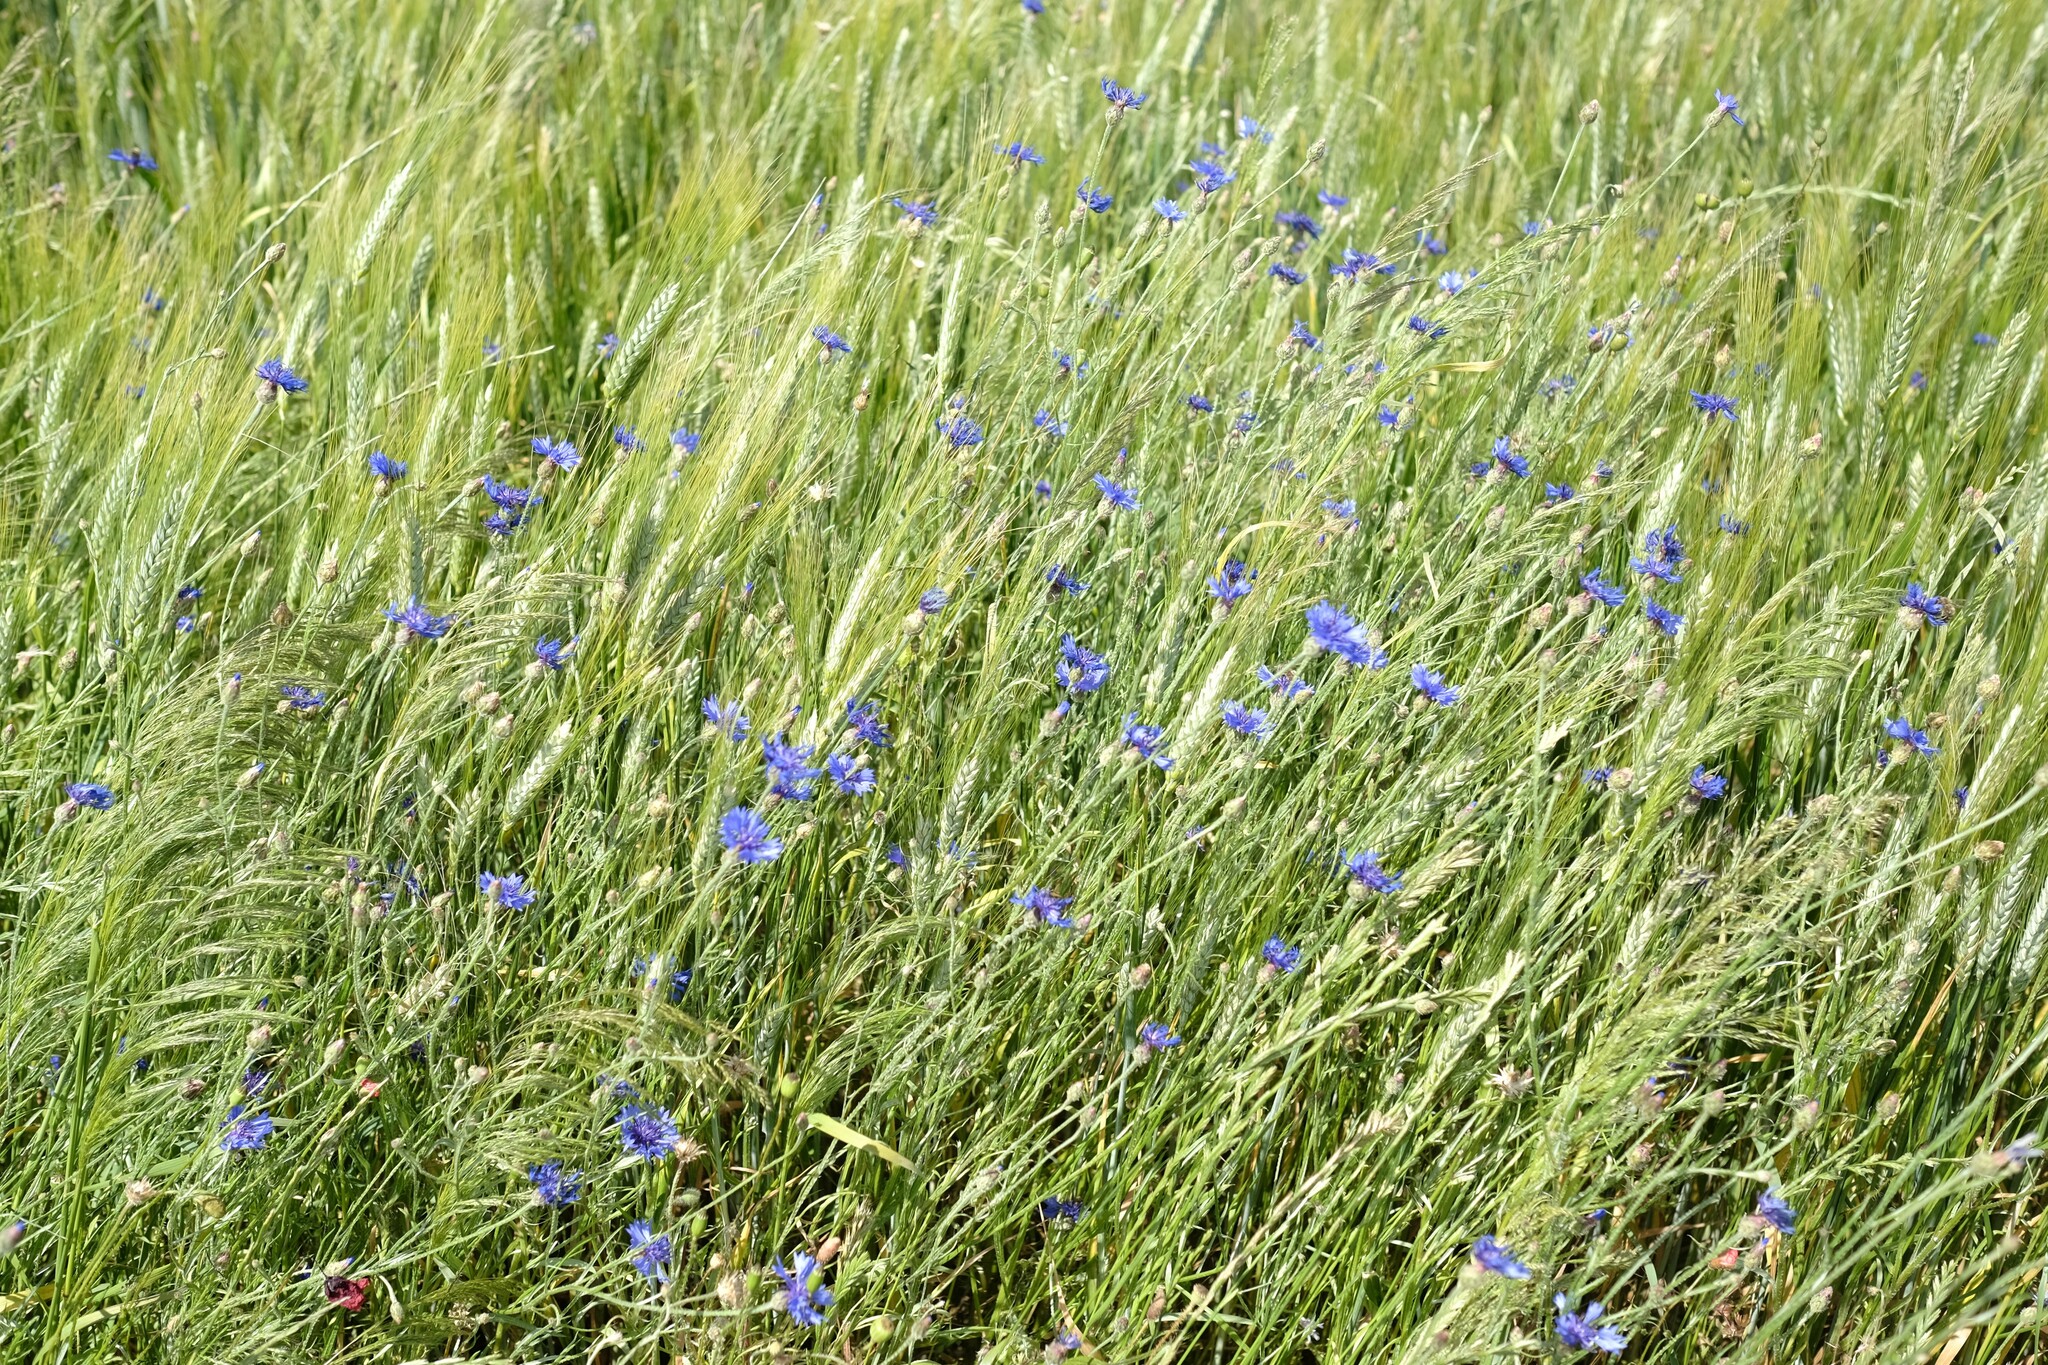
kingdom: Plantae
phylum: Tracheophyta
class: Magnoliopsida
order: Asterales
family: Asteraceae
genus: Centaurea
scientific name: Centaurea cyanus
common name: Cornflower
